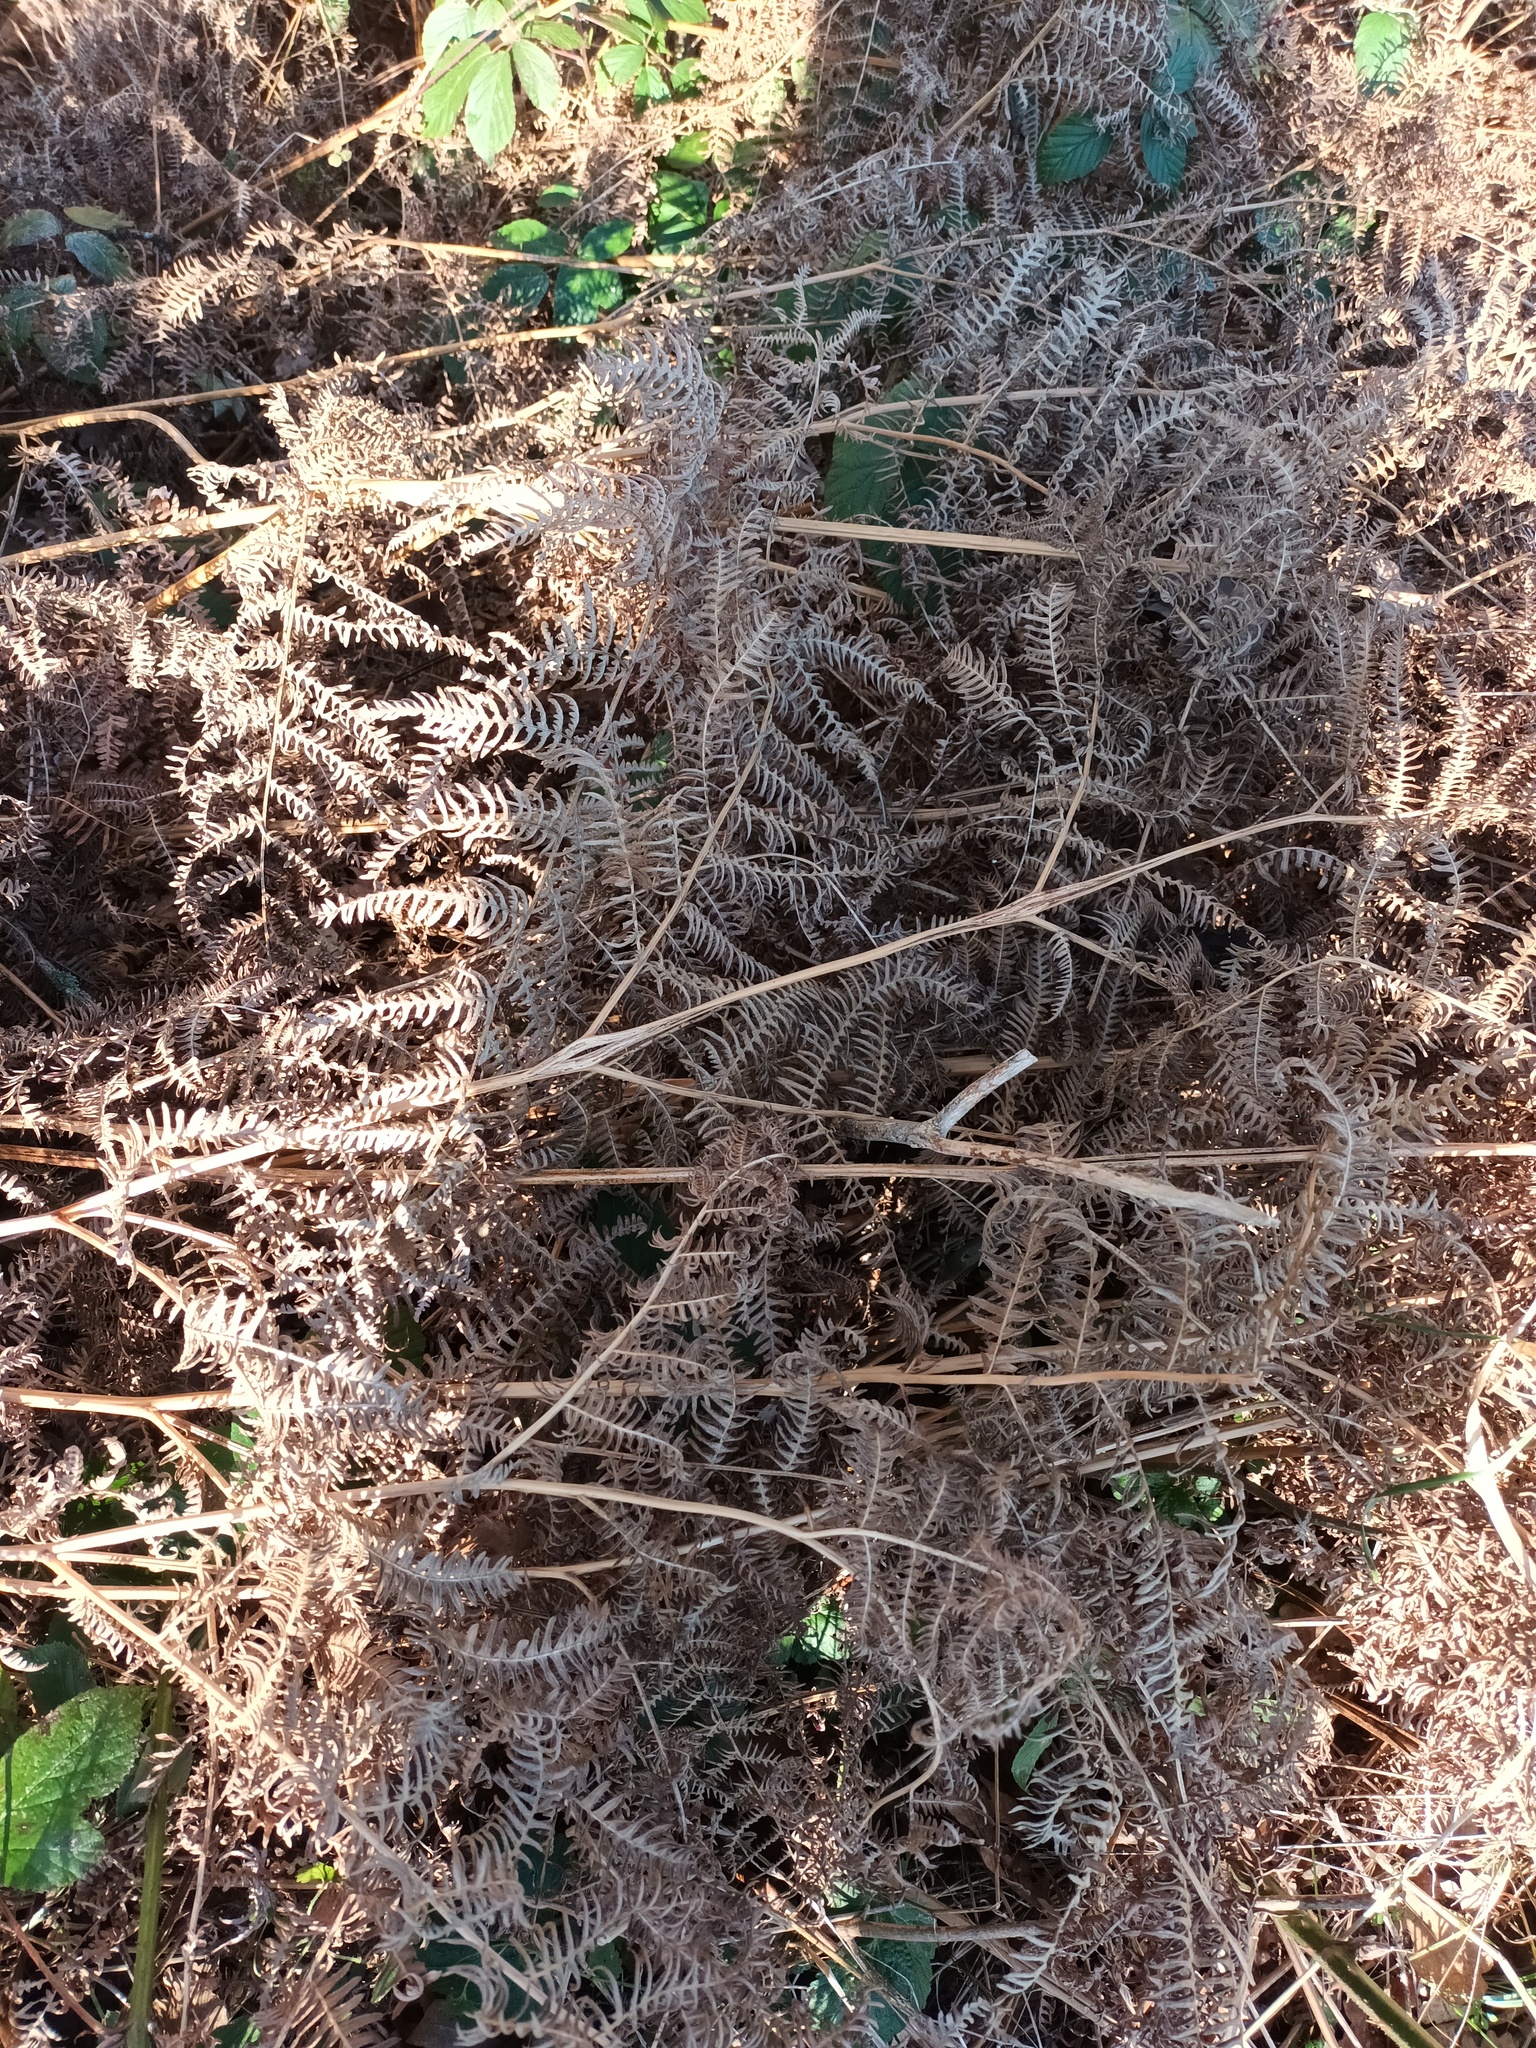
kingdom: Plantae
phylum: Tracheophyta
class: Polypodiopsida
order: Polypodiales
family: Dennstaedtiaceae
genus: Pteridium
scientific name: Pteridium aquilinum
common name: Bracken
